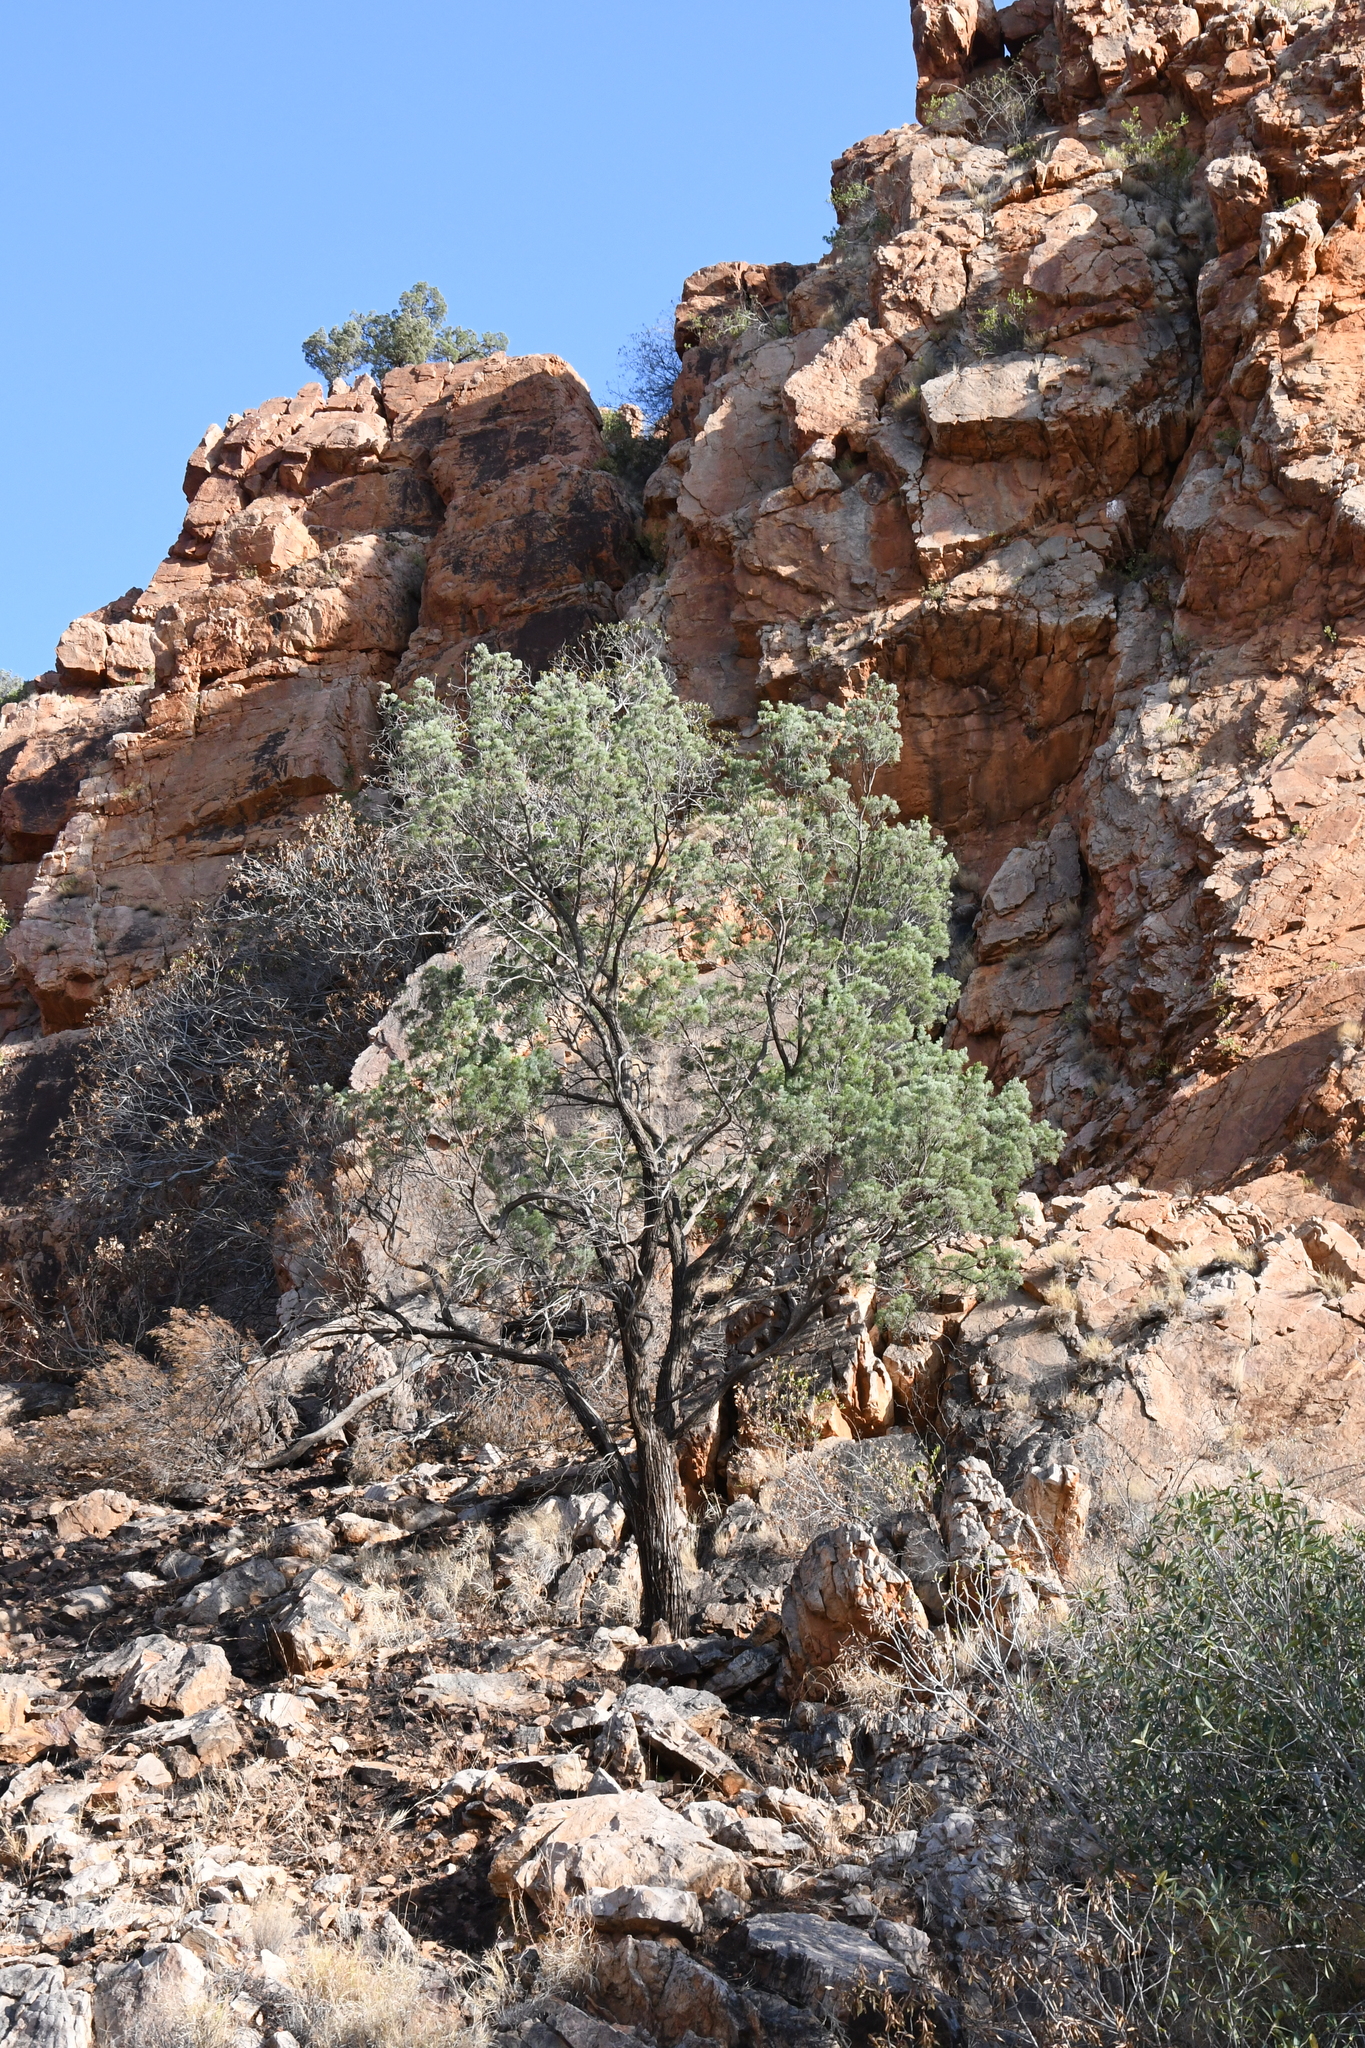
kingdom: Plantae
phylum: Tracheophyta
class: Pinopsida
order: Pinales
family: Cupressaceae
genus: Callitris
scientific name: Callitris columellaris
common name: White cypress-pine
